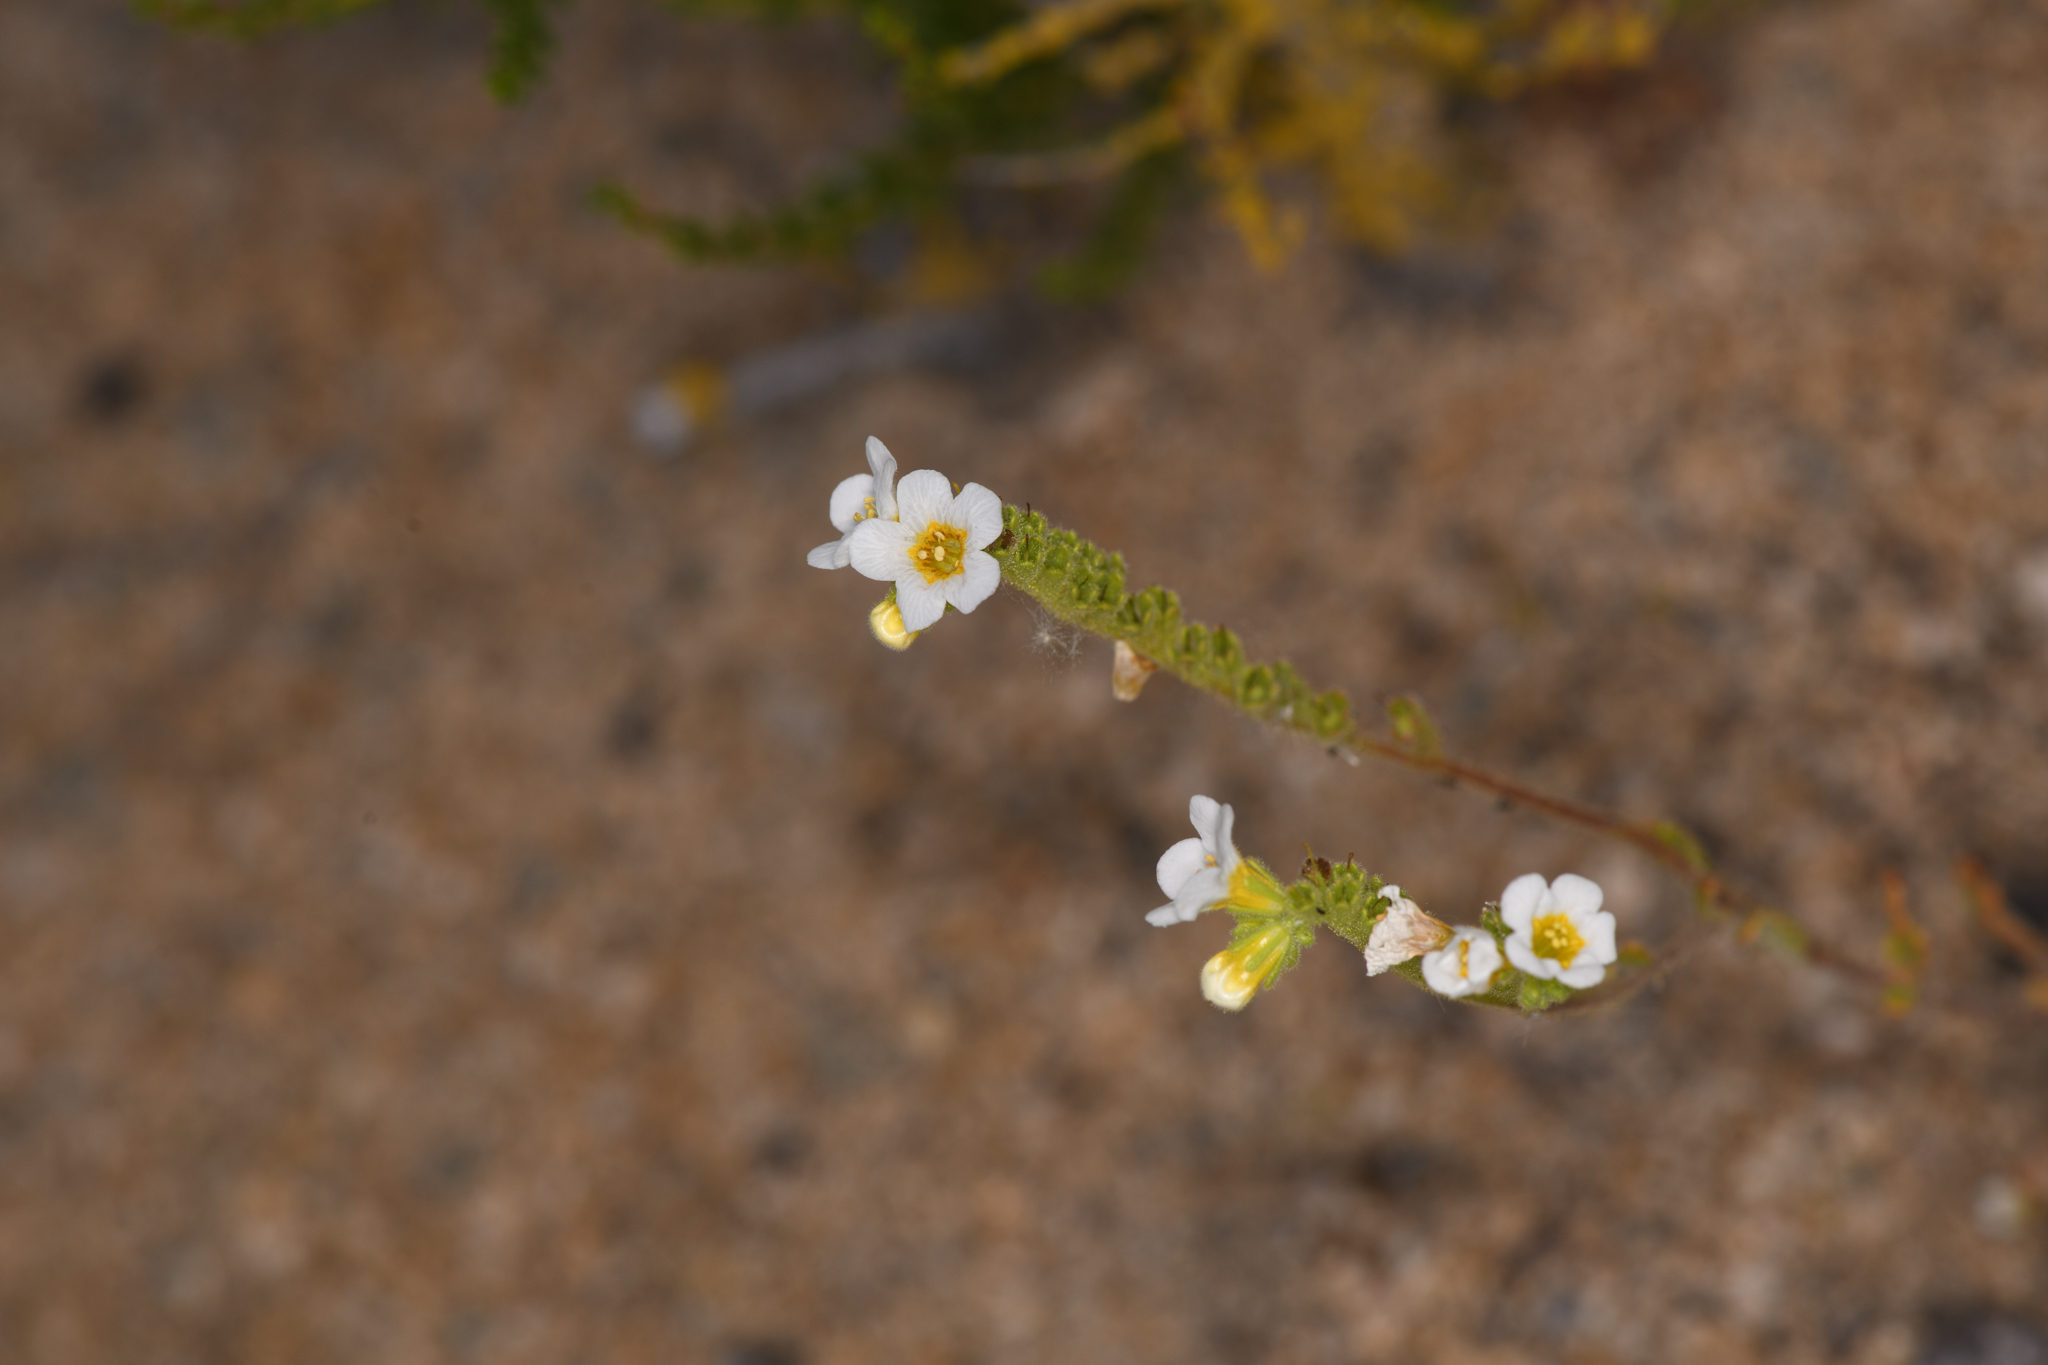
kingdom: Plantae
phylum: Tracheophyta
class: Magnoliopsida
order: Boraginales
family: Hydrophyllaceae
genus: Phacelia
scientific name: Phacelia brachyloba
